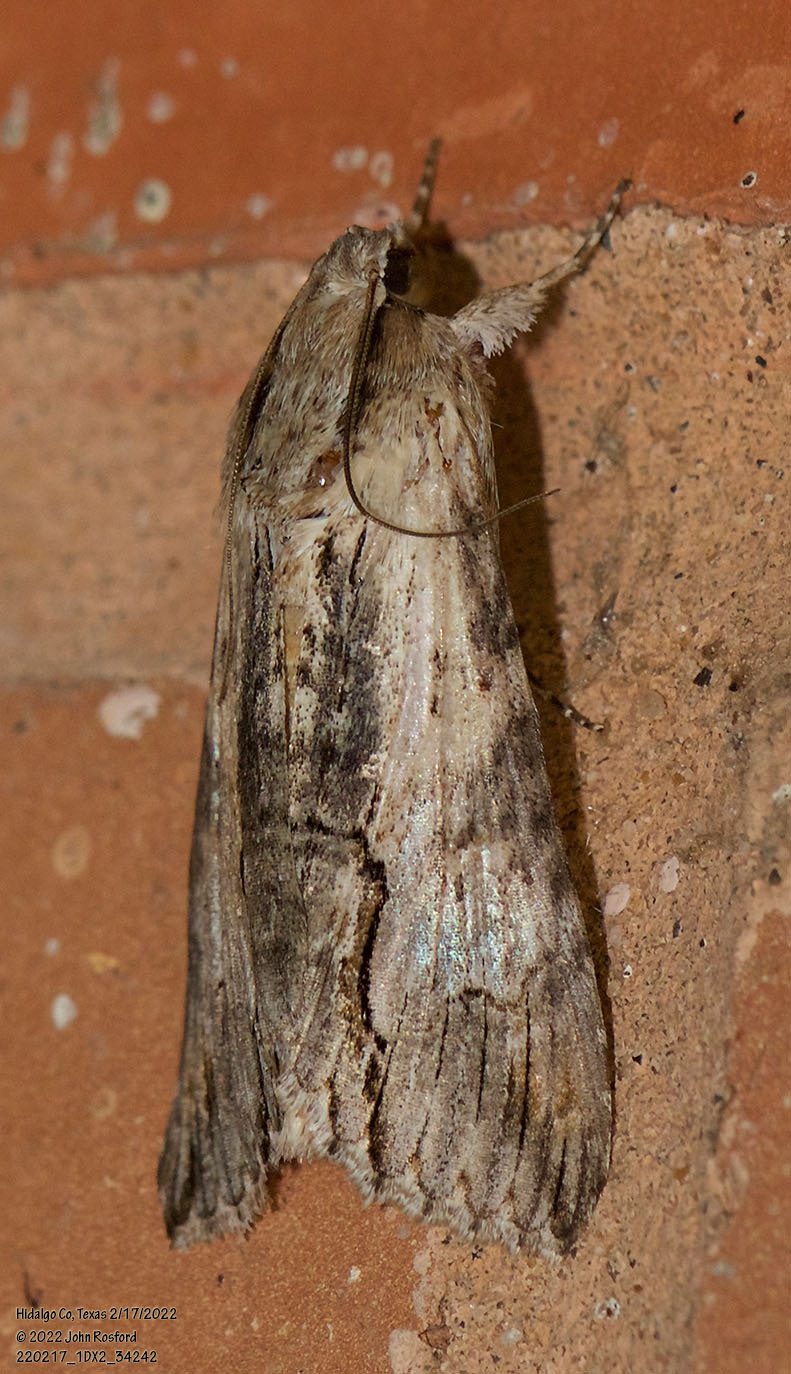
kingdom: Animalia
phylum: Arthropoda
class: Insecta
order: Lepidoptera
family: Erebidae
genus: Melipotis
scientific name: Melipotis acontioides
